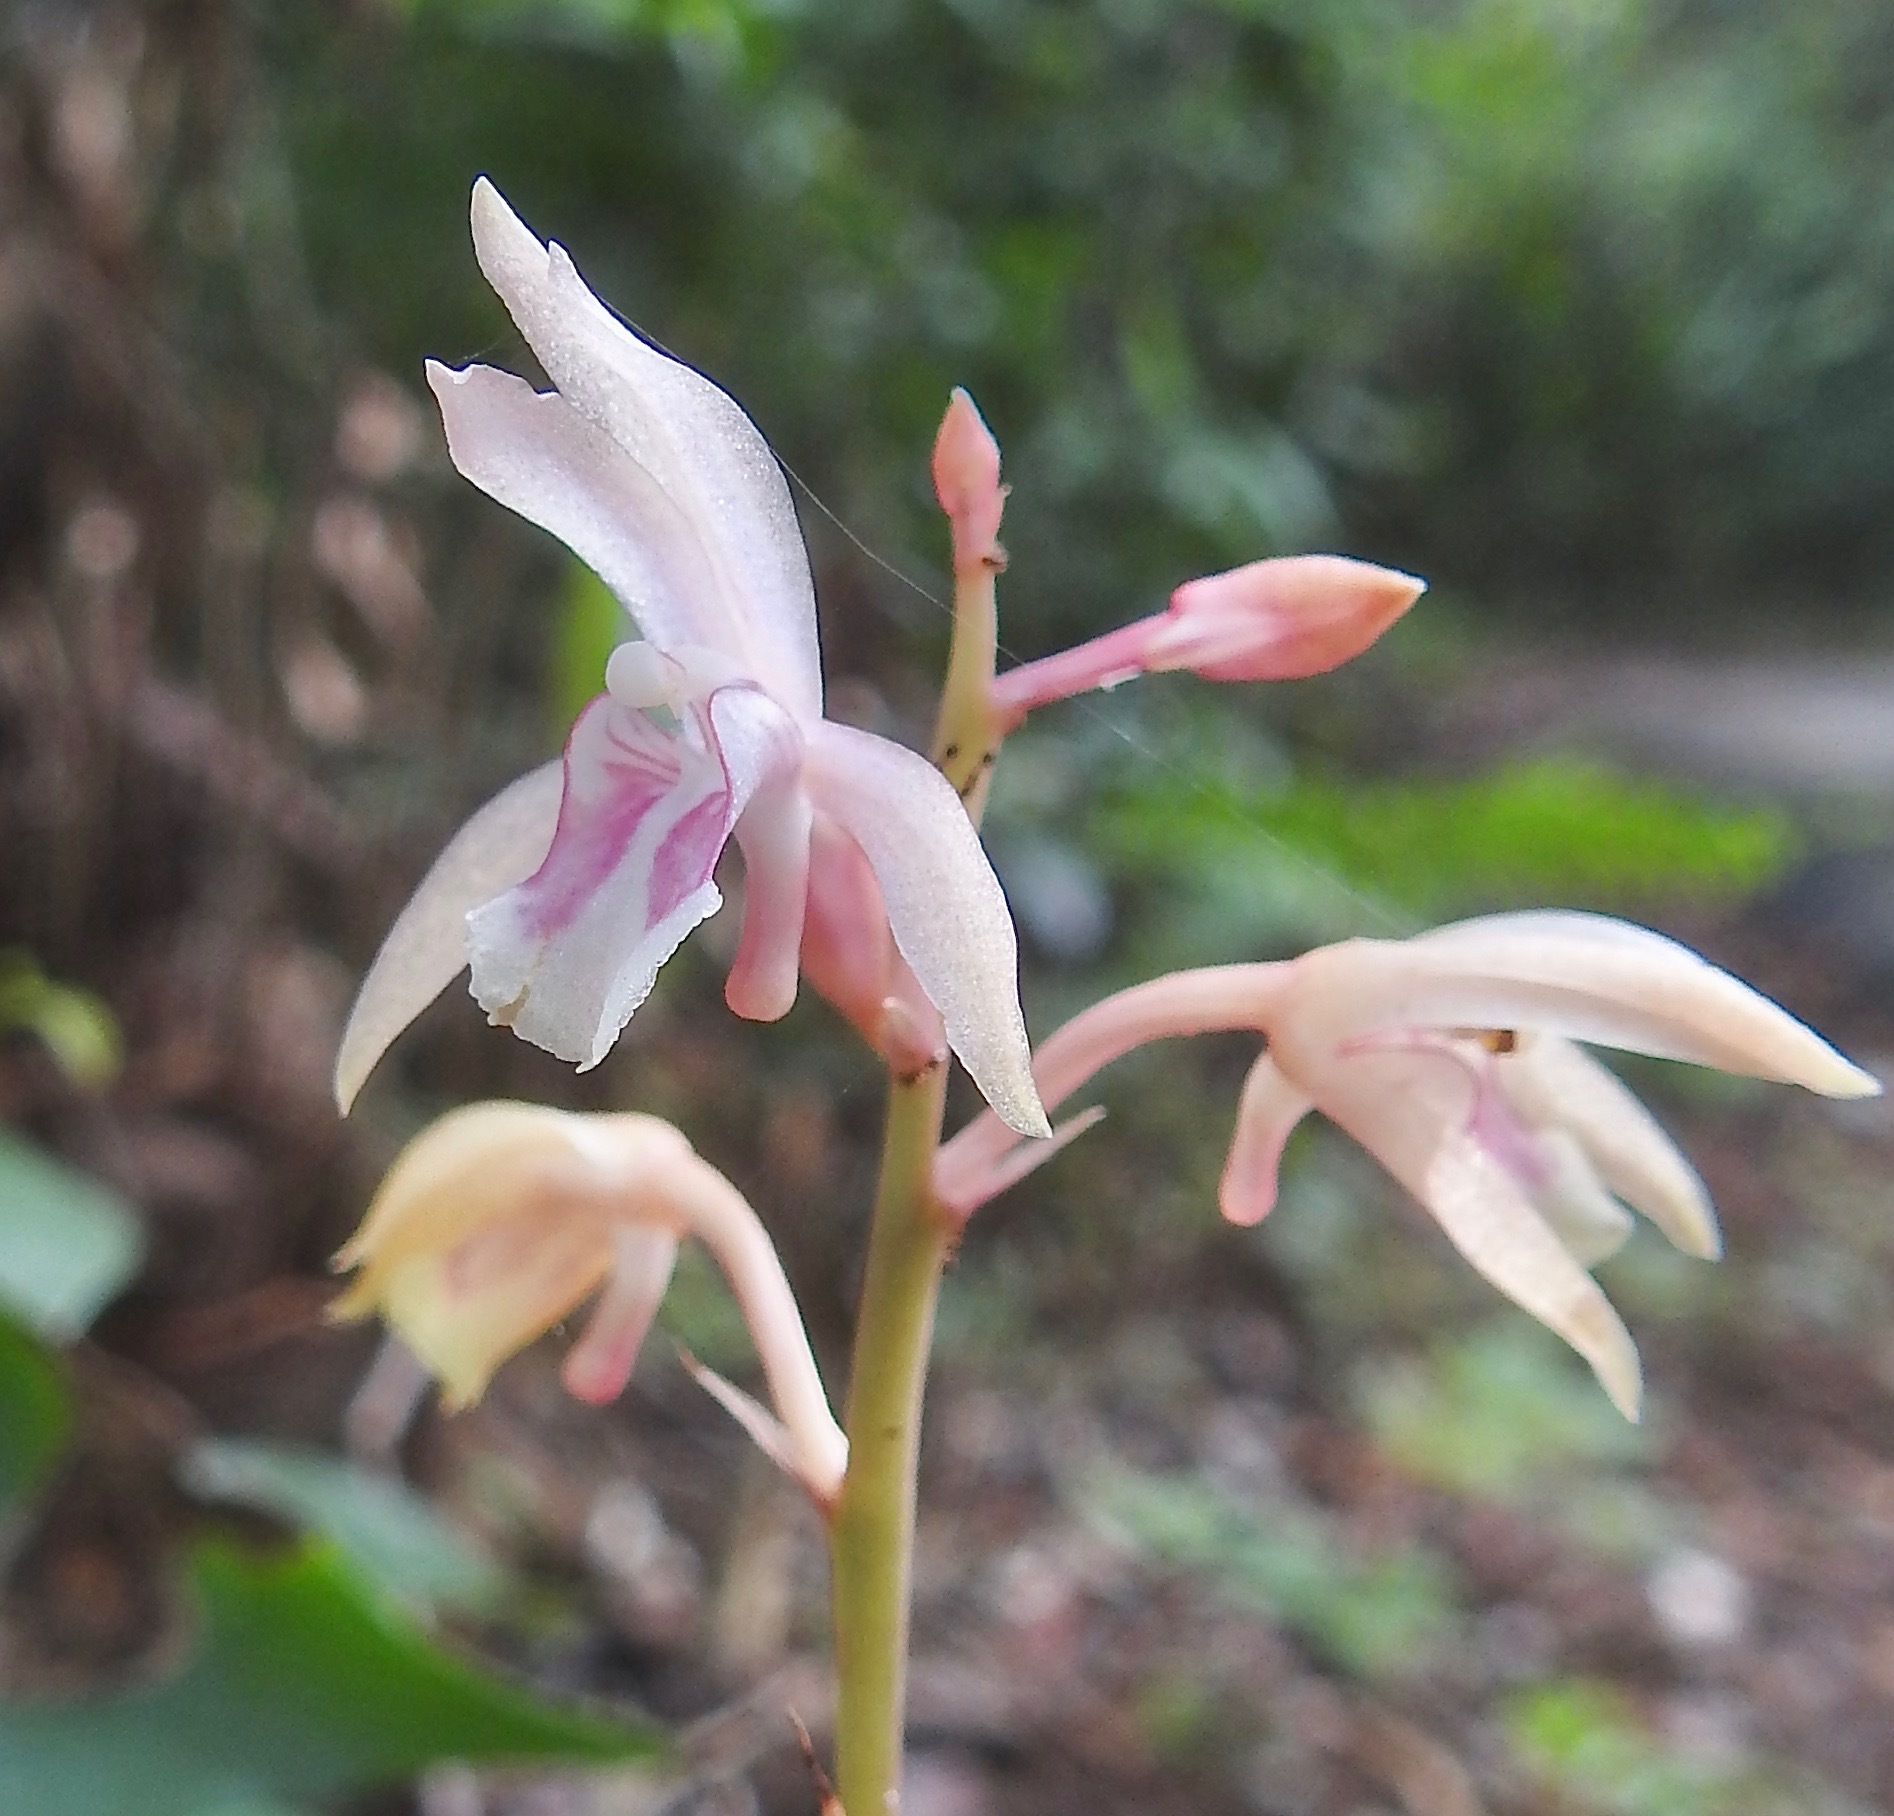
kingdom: Plantae
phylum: Tracheophyta
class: Liliopsida
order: Asparagales
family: Orchidaceae
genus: Eulophia
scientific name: Eulophia maculata
